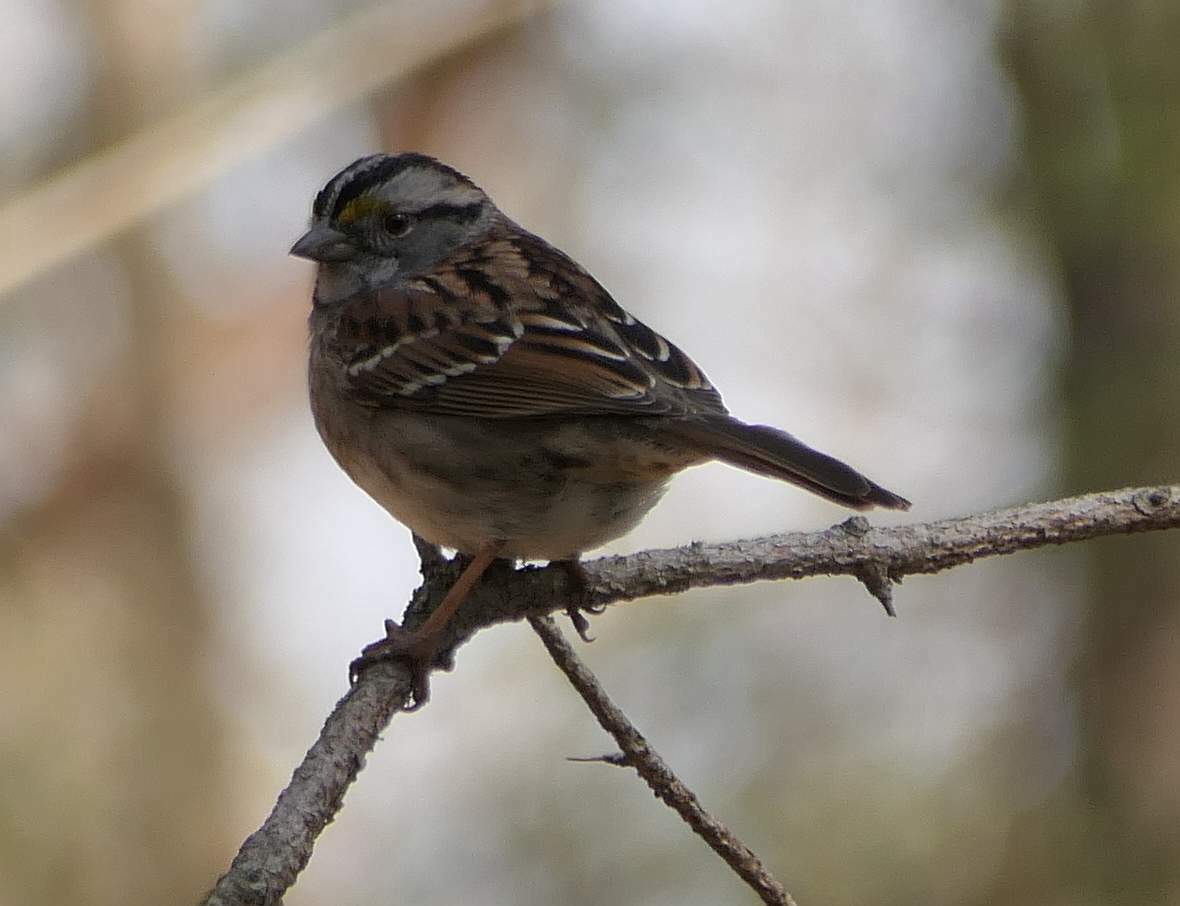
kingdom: Animalia
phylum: Chordata
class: Aves
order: Passeriformes
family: Passerellidae
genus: Zonotrichia
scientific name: Zonotrichia albicollis
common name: White-throated sparrow
